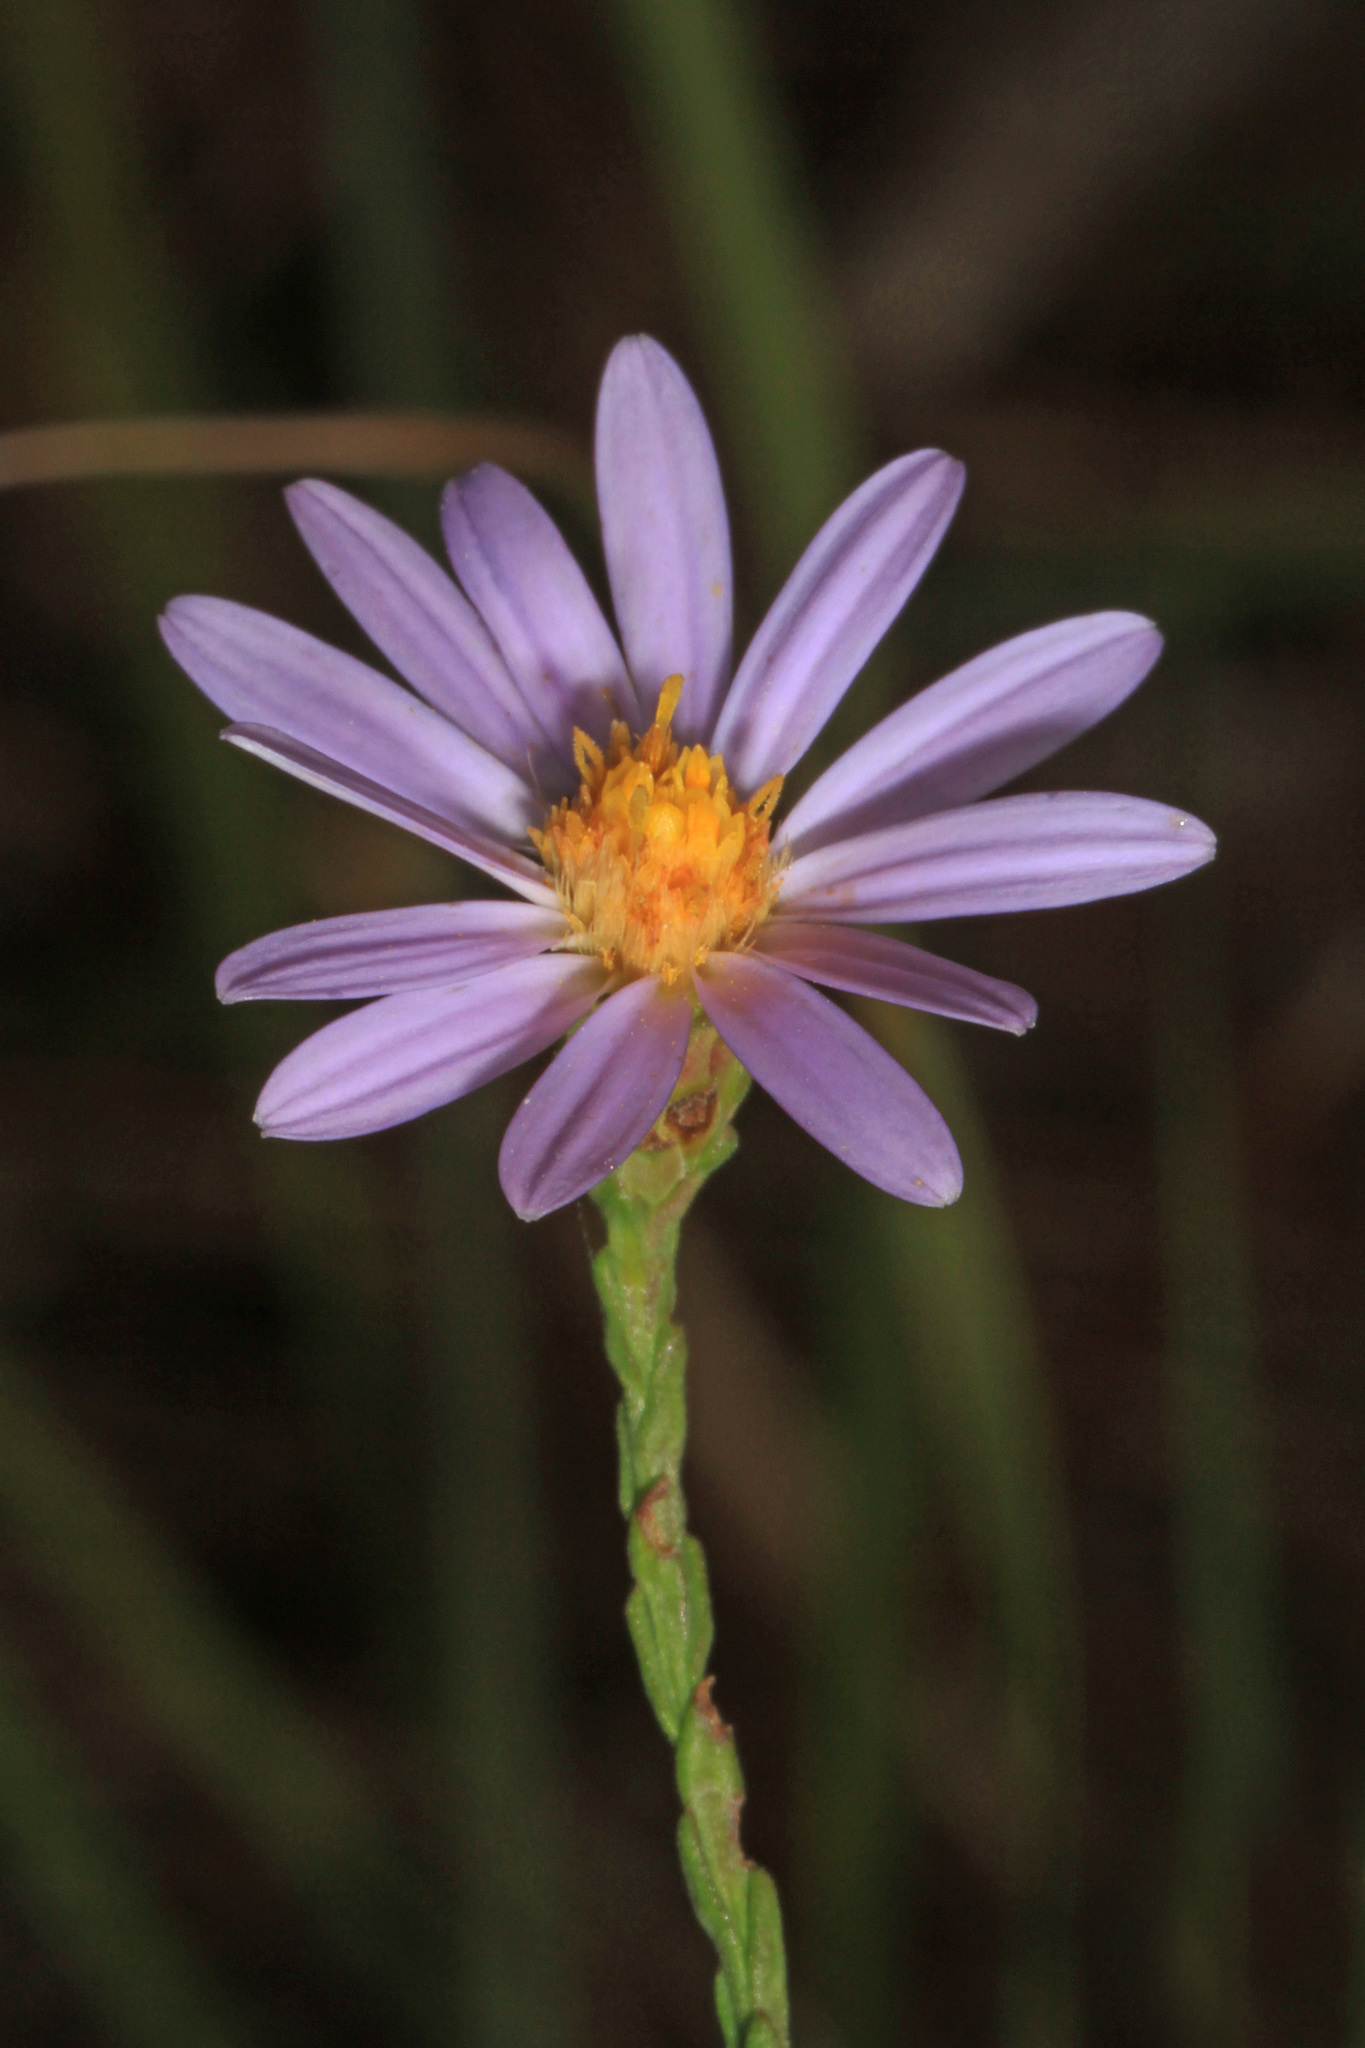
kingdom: Plantae
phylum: Tracheophyta
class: Magnoliopsida
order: Asterales
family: Asteraceae
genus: Symphyotrichum
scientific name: Symphyotrichum adnatum
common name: Scale-leaf aster
